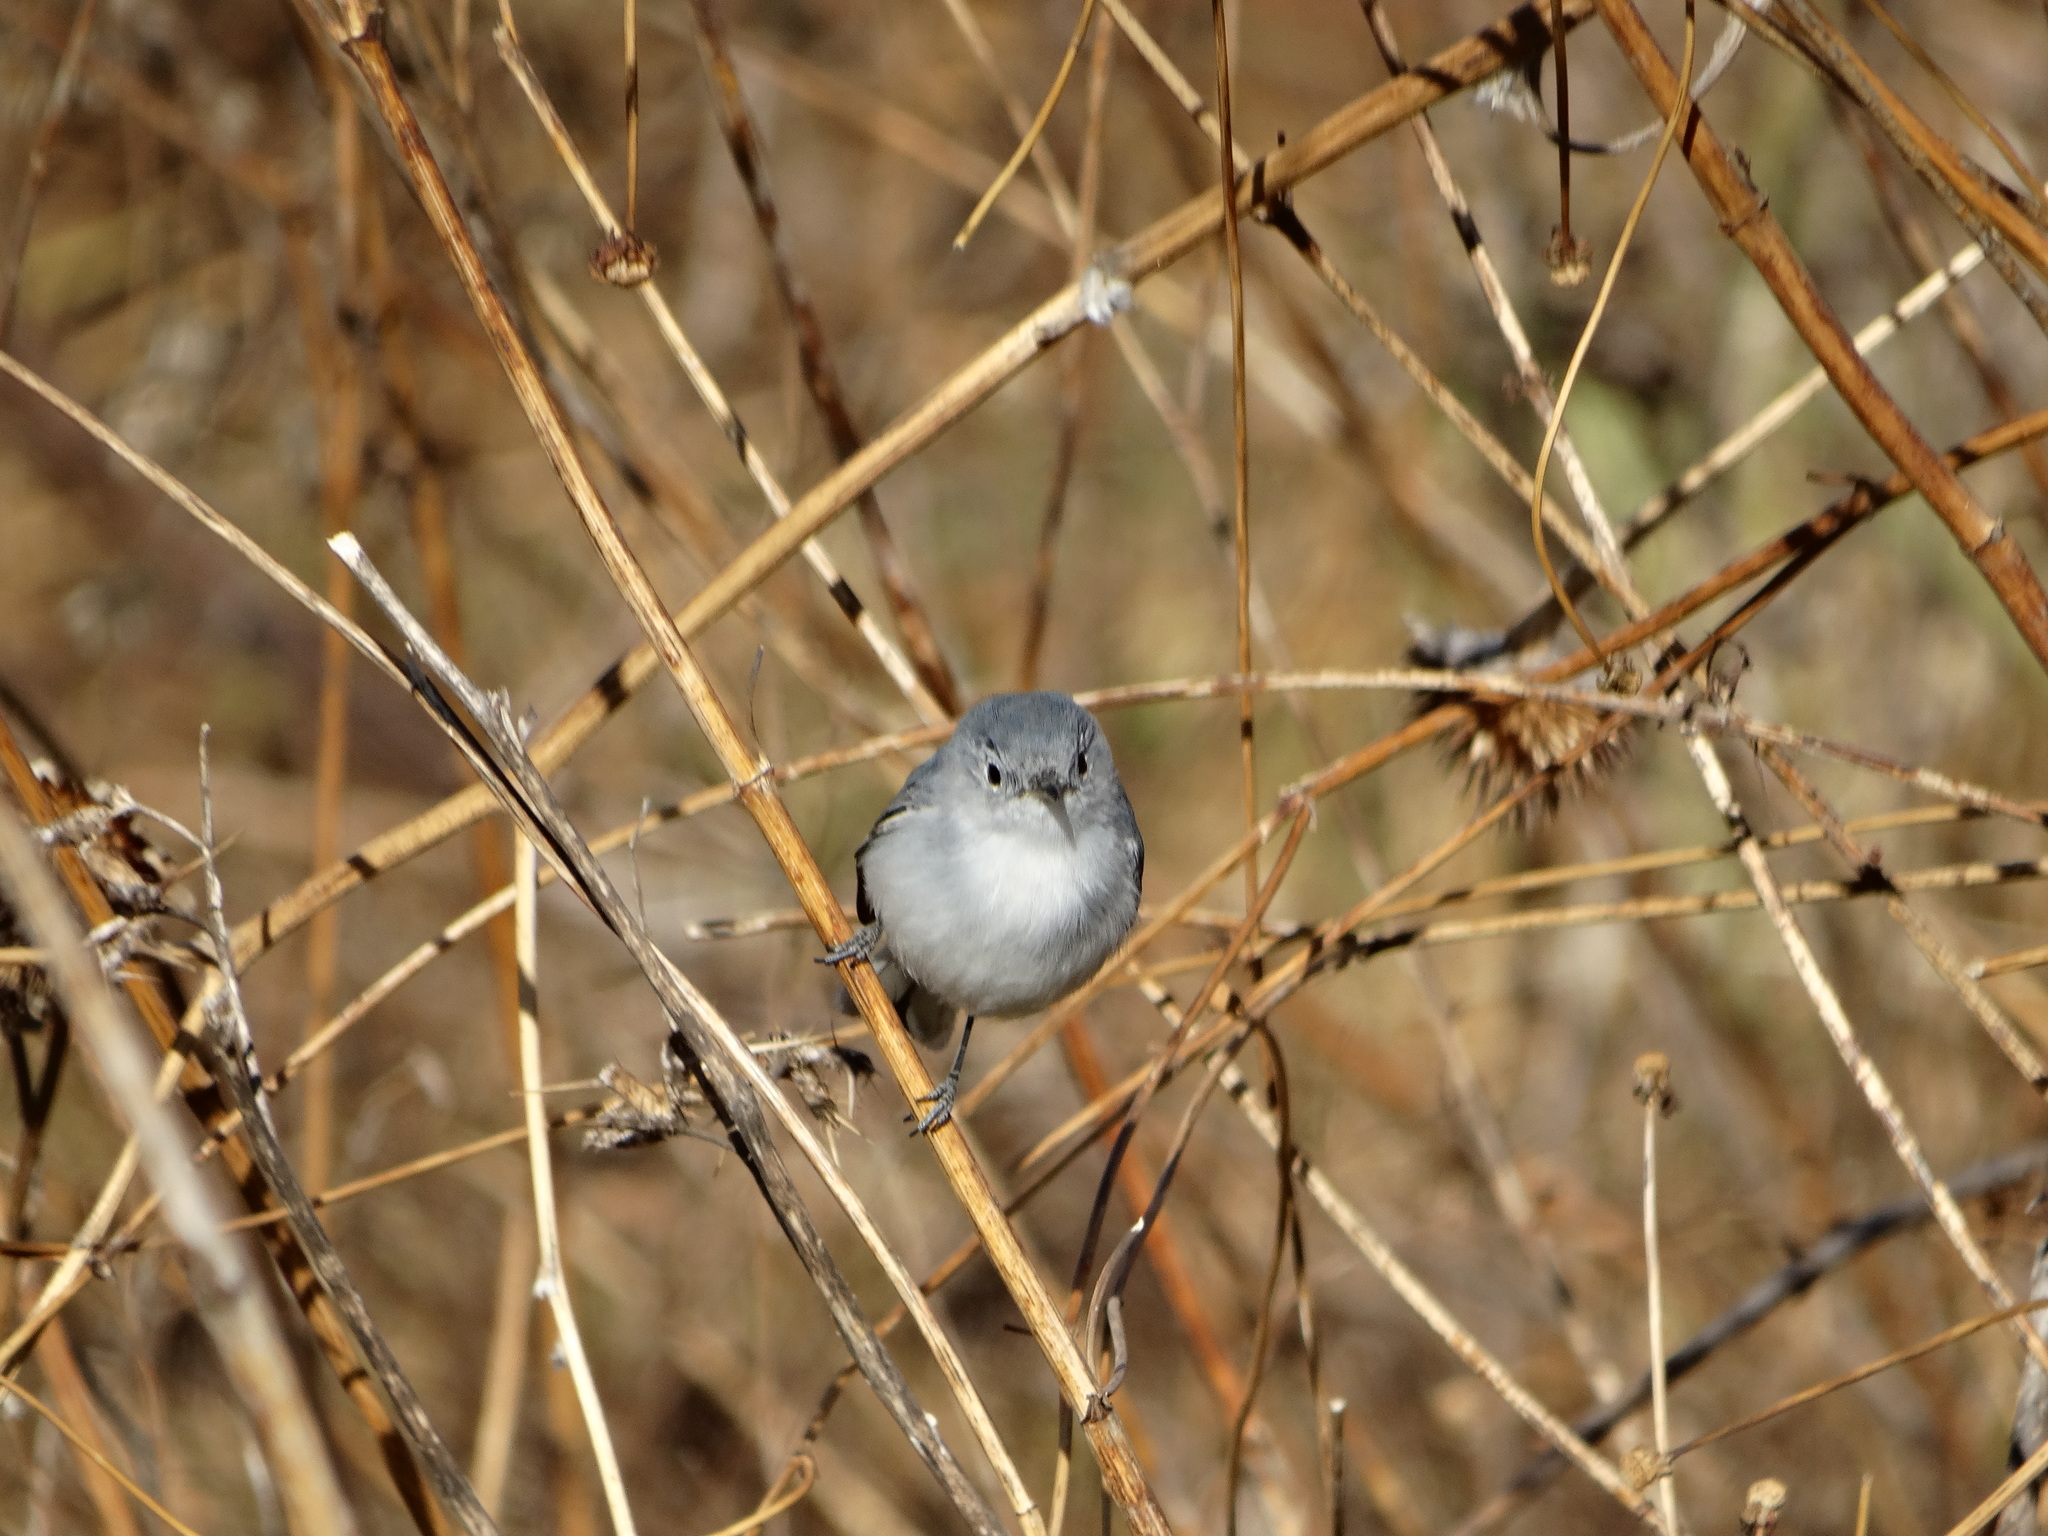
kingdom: Animalia
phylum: Chordata
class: Aves
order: Passeriformes
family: Polioptilidae
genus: Polioptila
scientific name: Polioptila caerulea
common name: Blue-gray gnatcatcher
